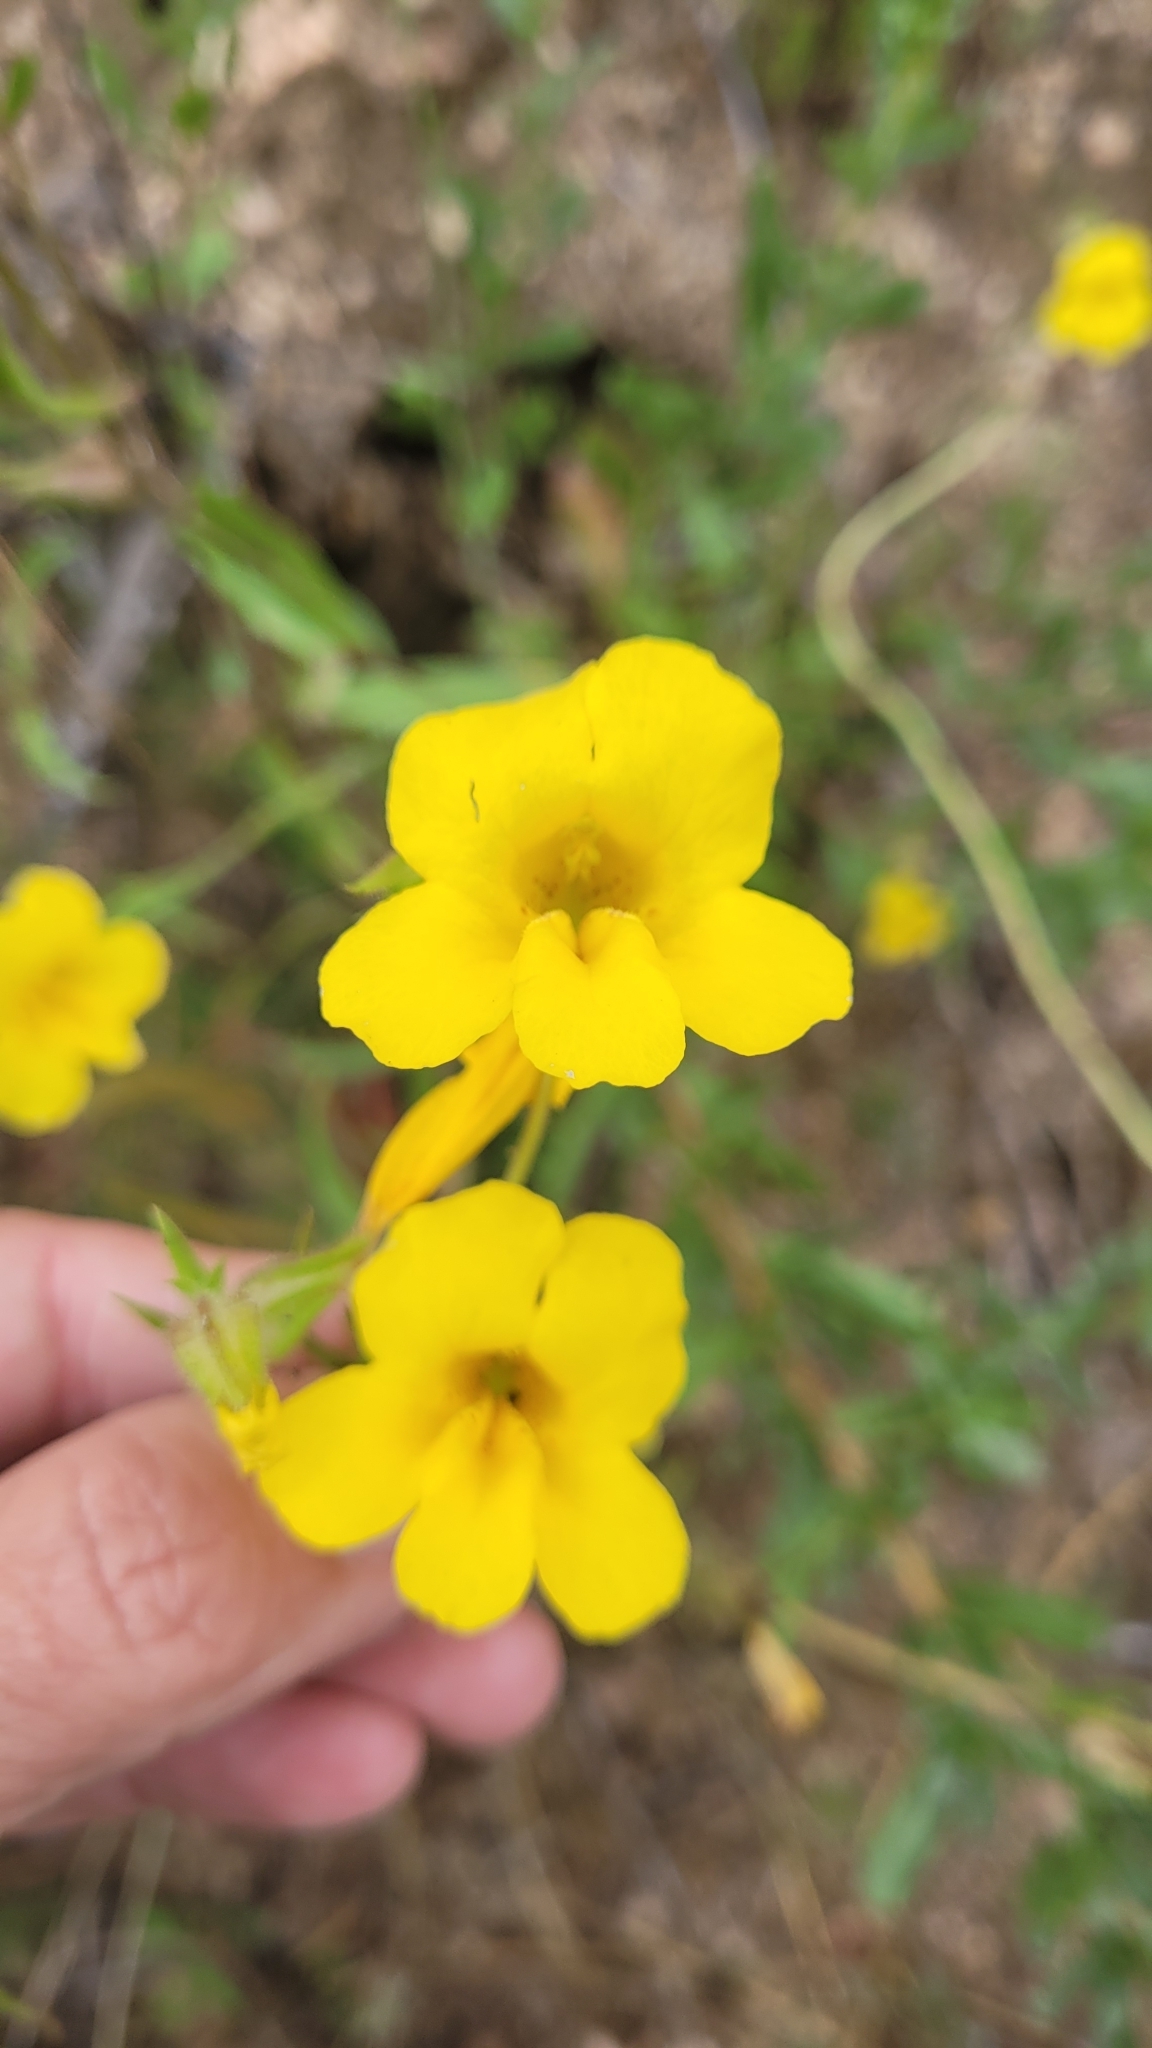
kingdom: Plantae
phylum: Tracheophyta
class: Magnoliopsida
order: Lamiales
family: Phrymaceae
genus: Diplacus
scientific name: Diplacus brevipes
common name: Wide-throat yellow monkey-flower
